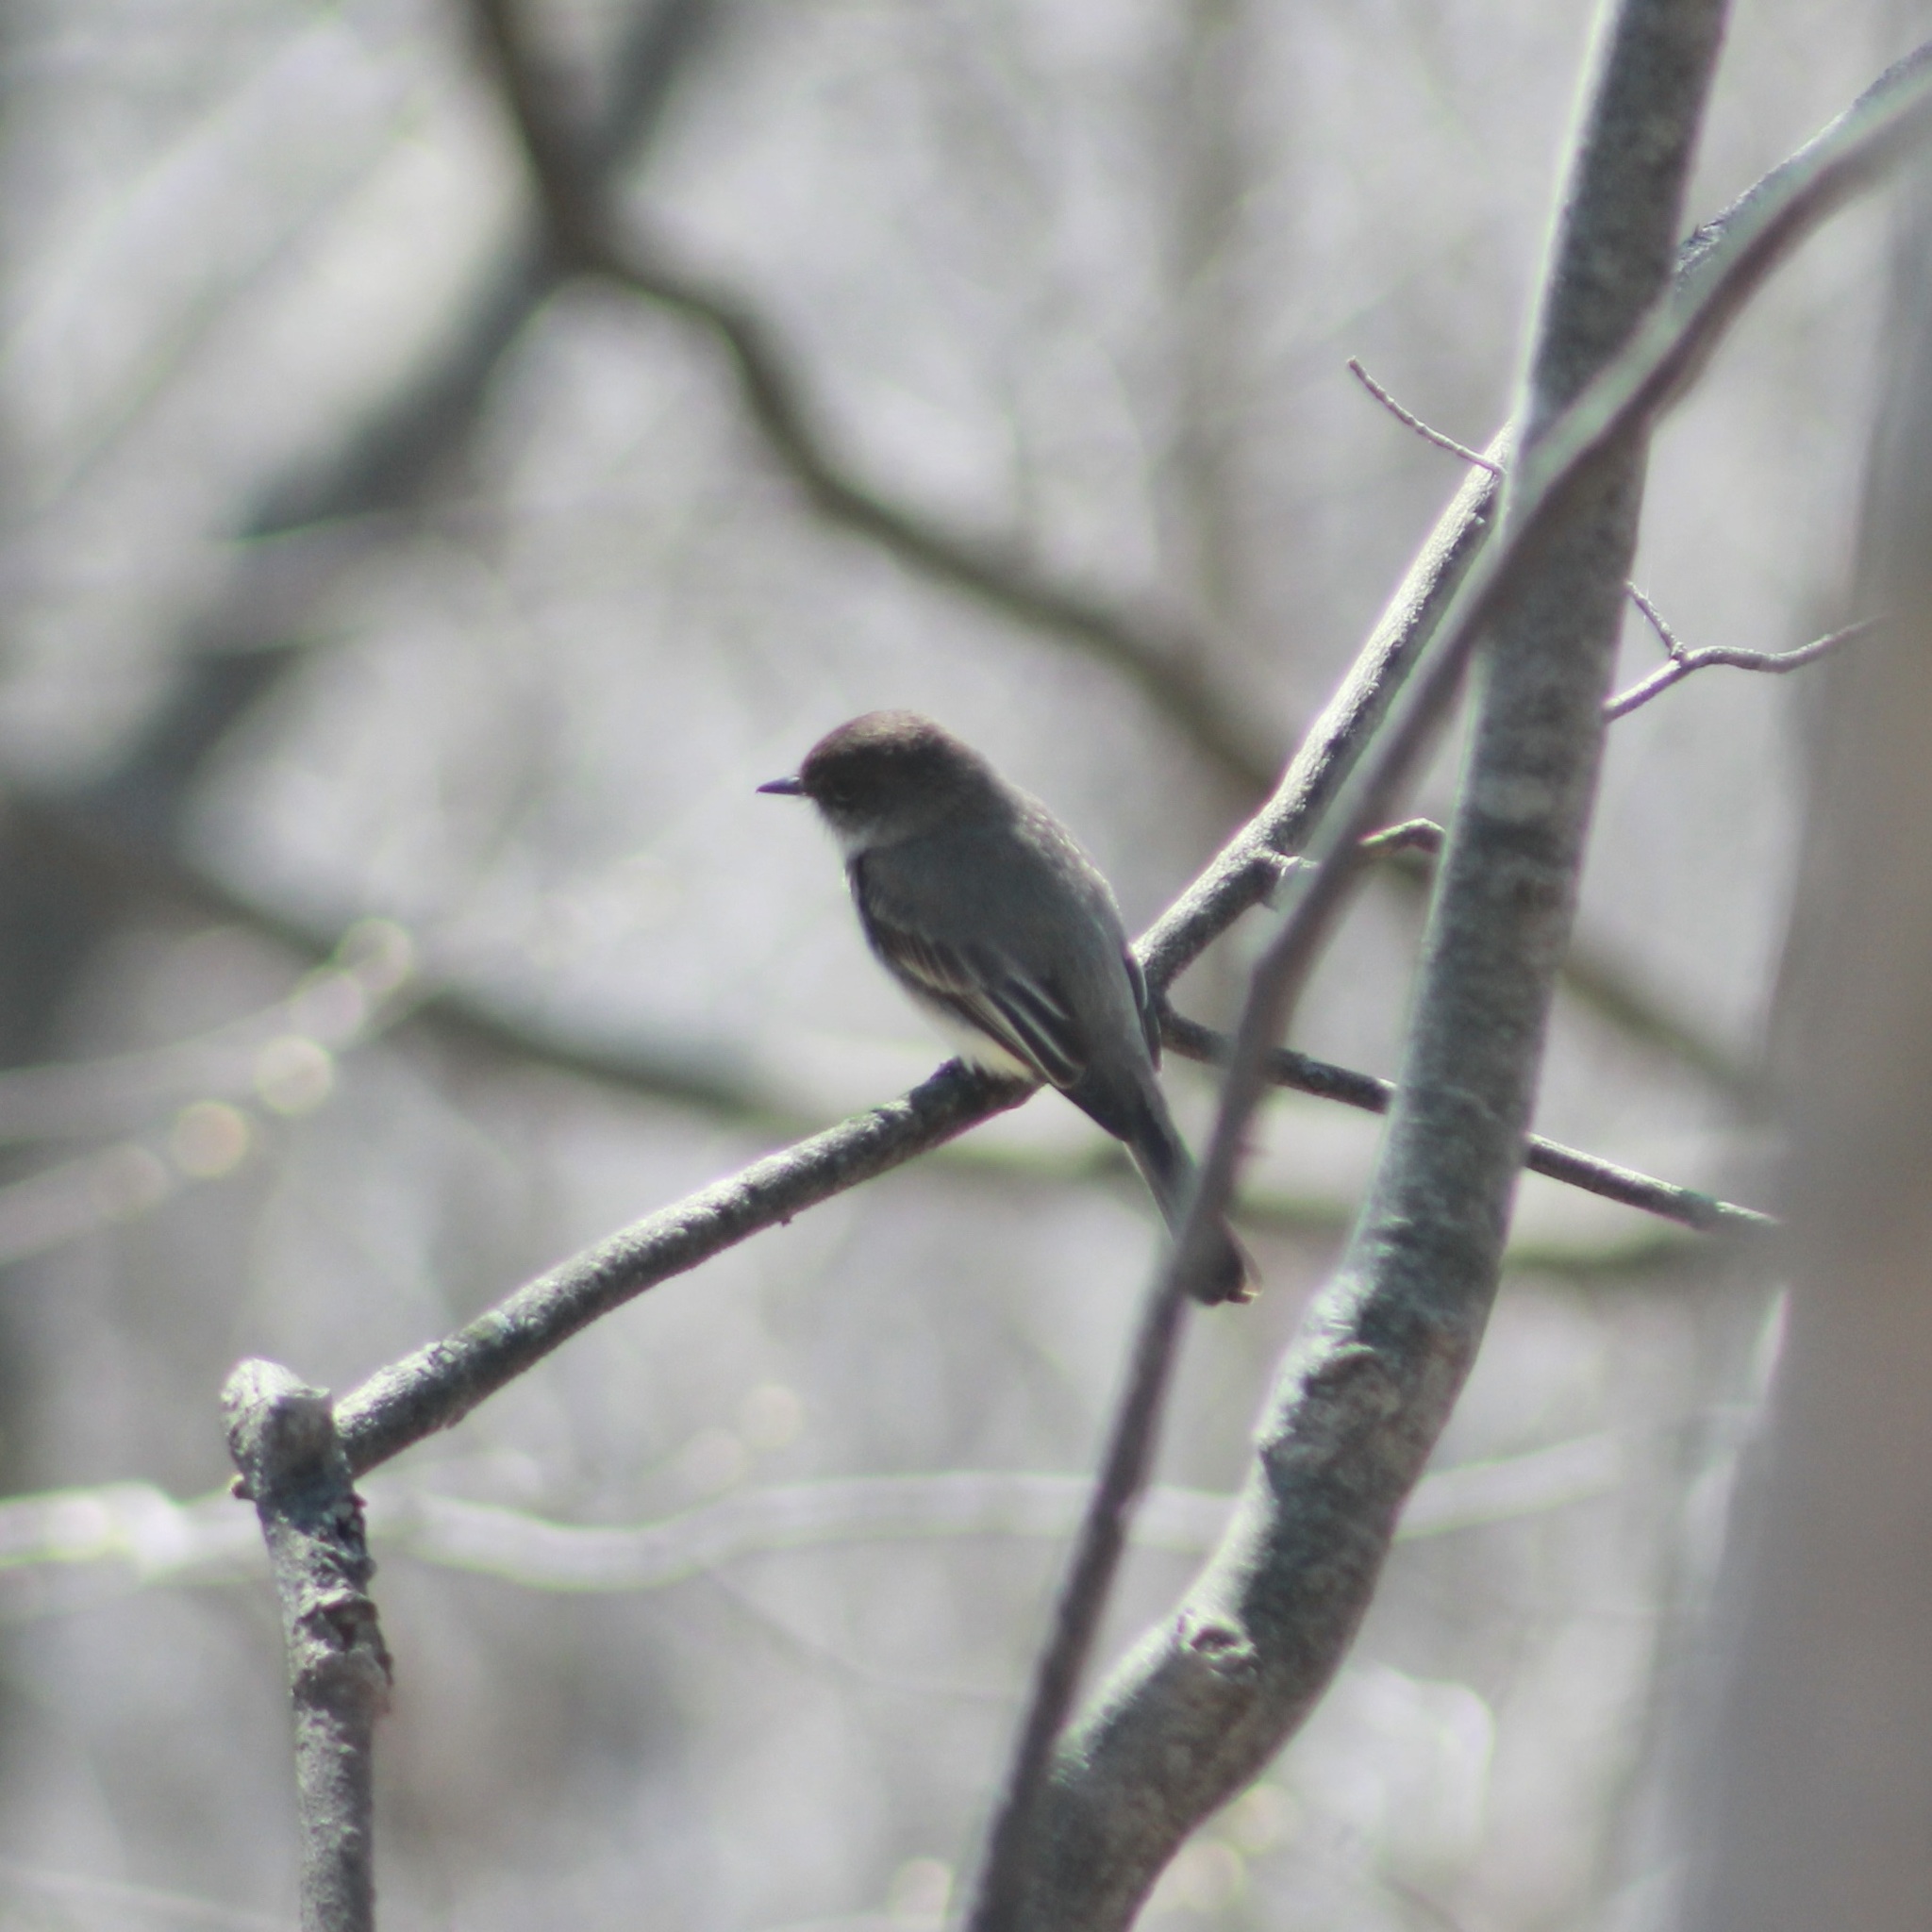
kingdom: Animalia
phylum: Chordata
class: Aves
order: Passeriformes
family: Tyrannidae
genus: Sayornis
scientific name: Sayornis phoebe
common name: Eastern phoebe
